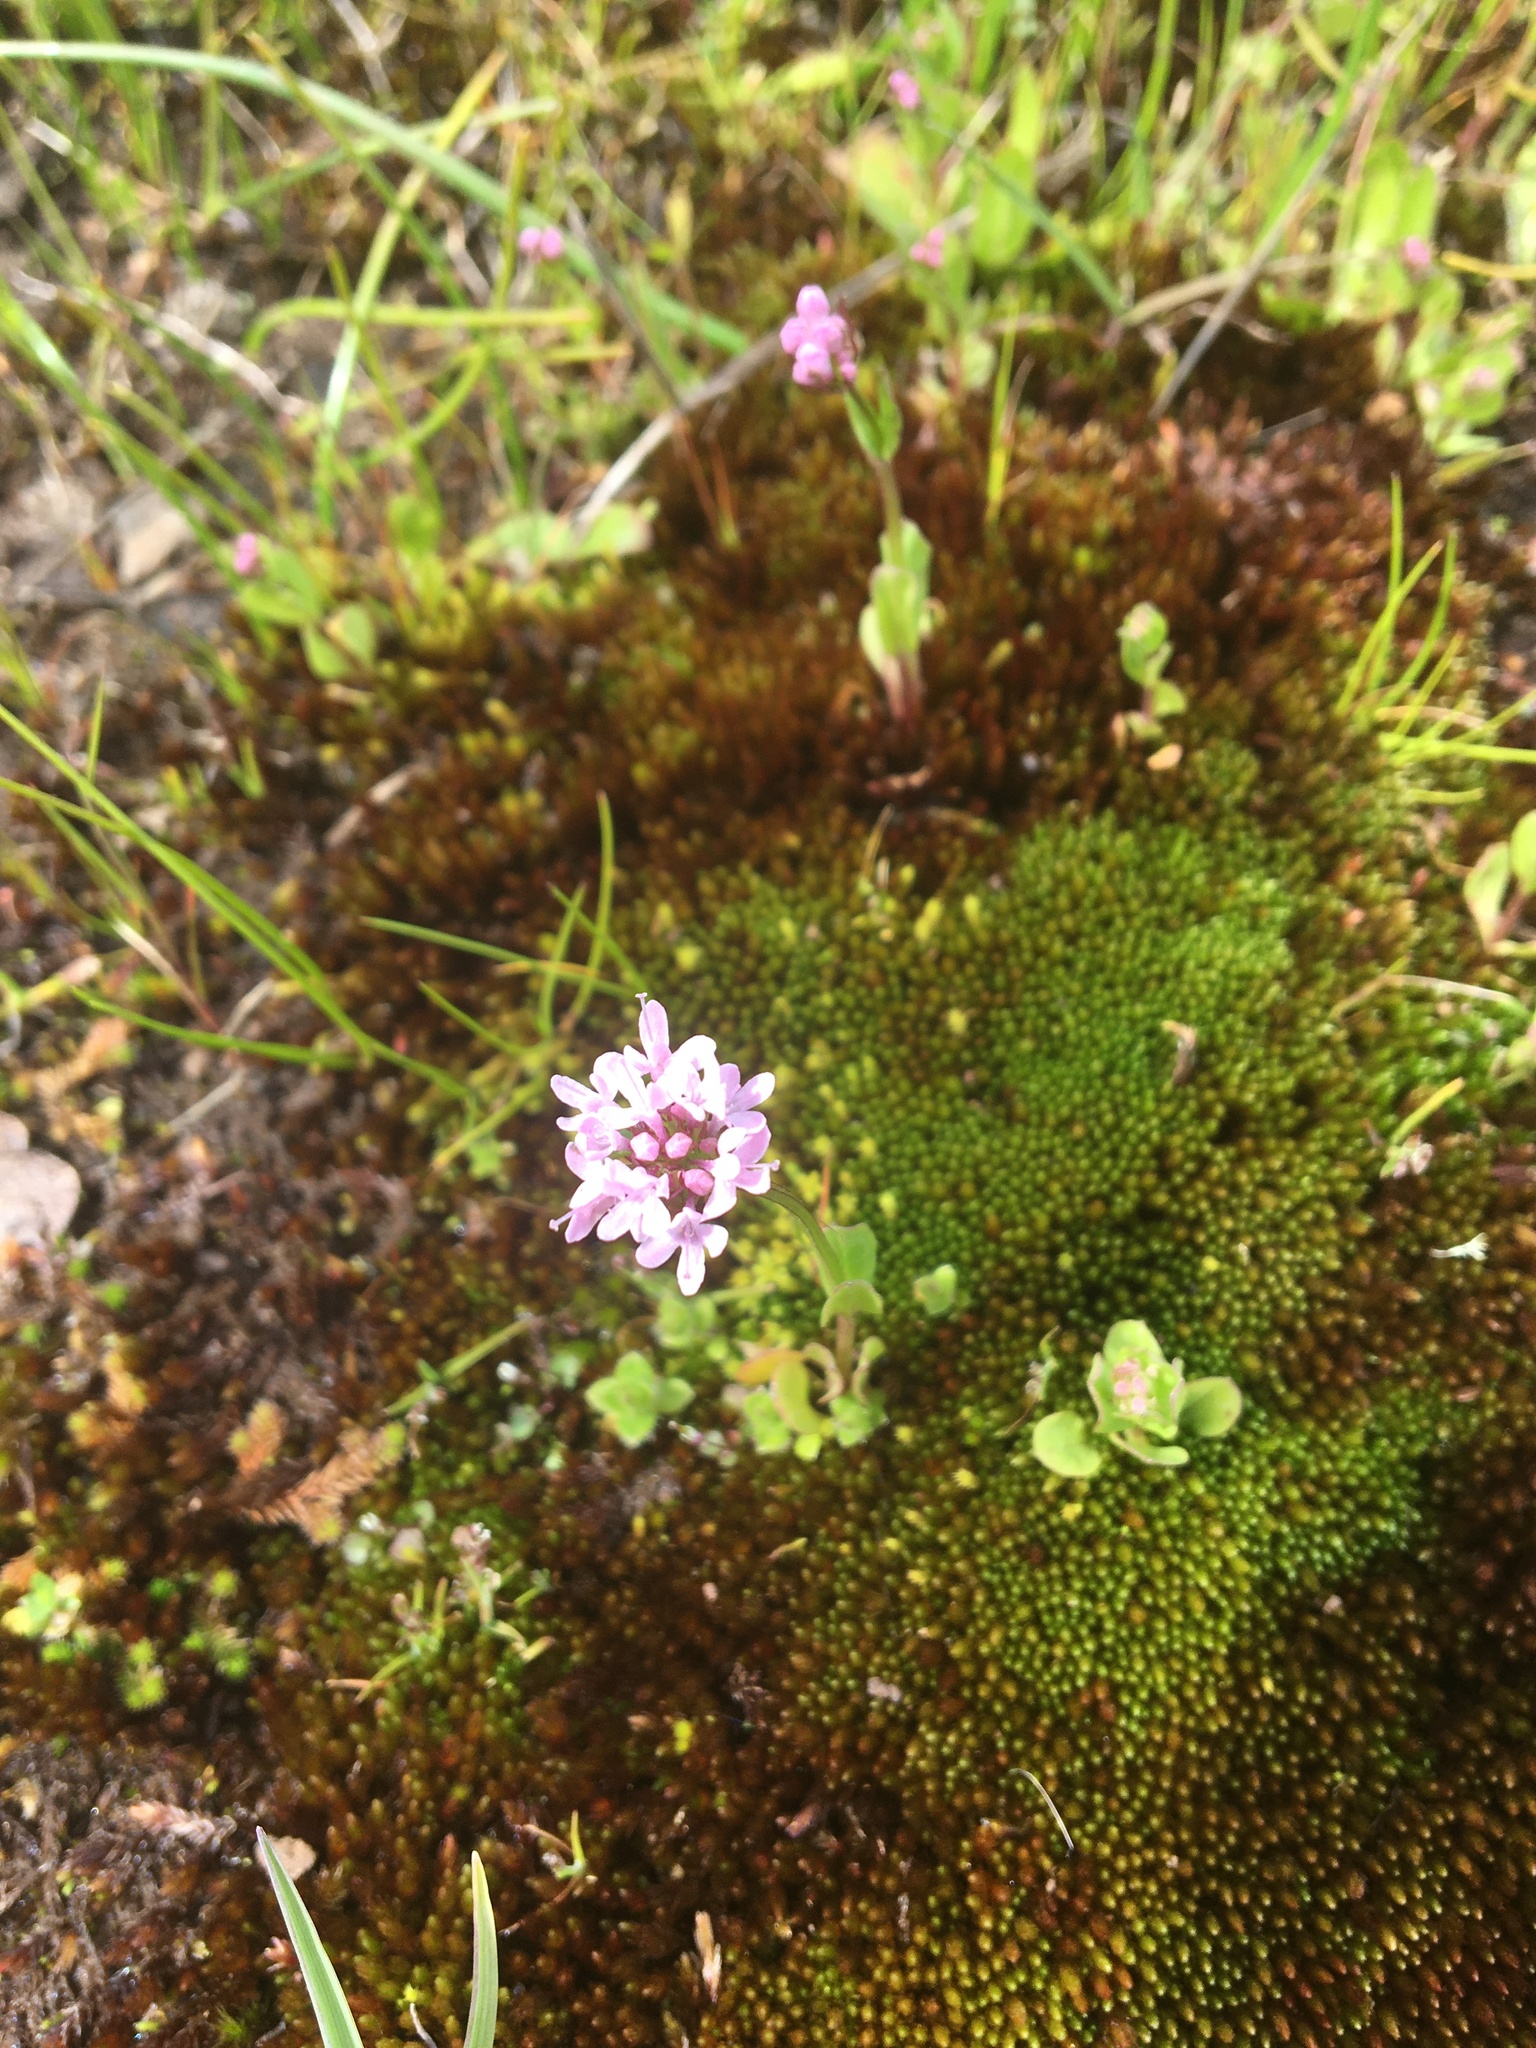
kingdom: Plantae
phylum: Tracheophyta
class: Magnoliopsida
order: Dipsacales
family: Caprifoliaceae
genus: Plectritis
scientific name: Plectritis congesta
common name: Pink plectritis
